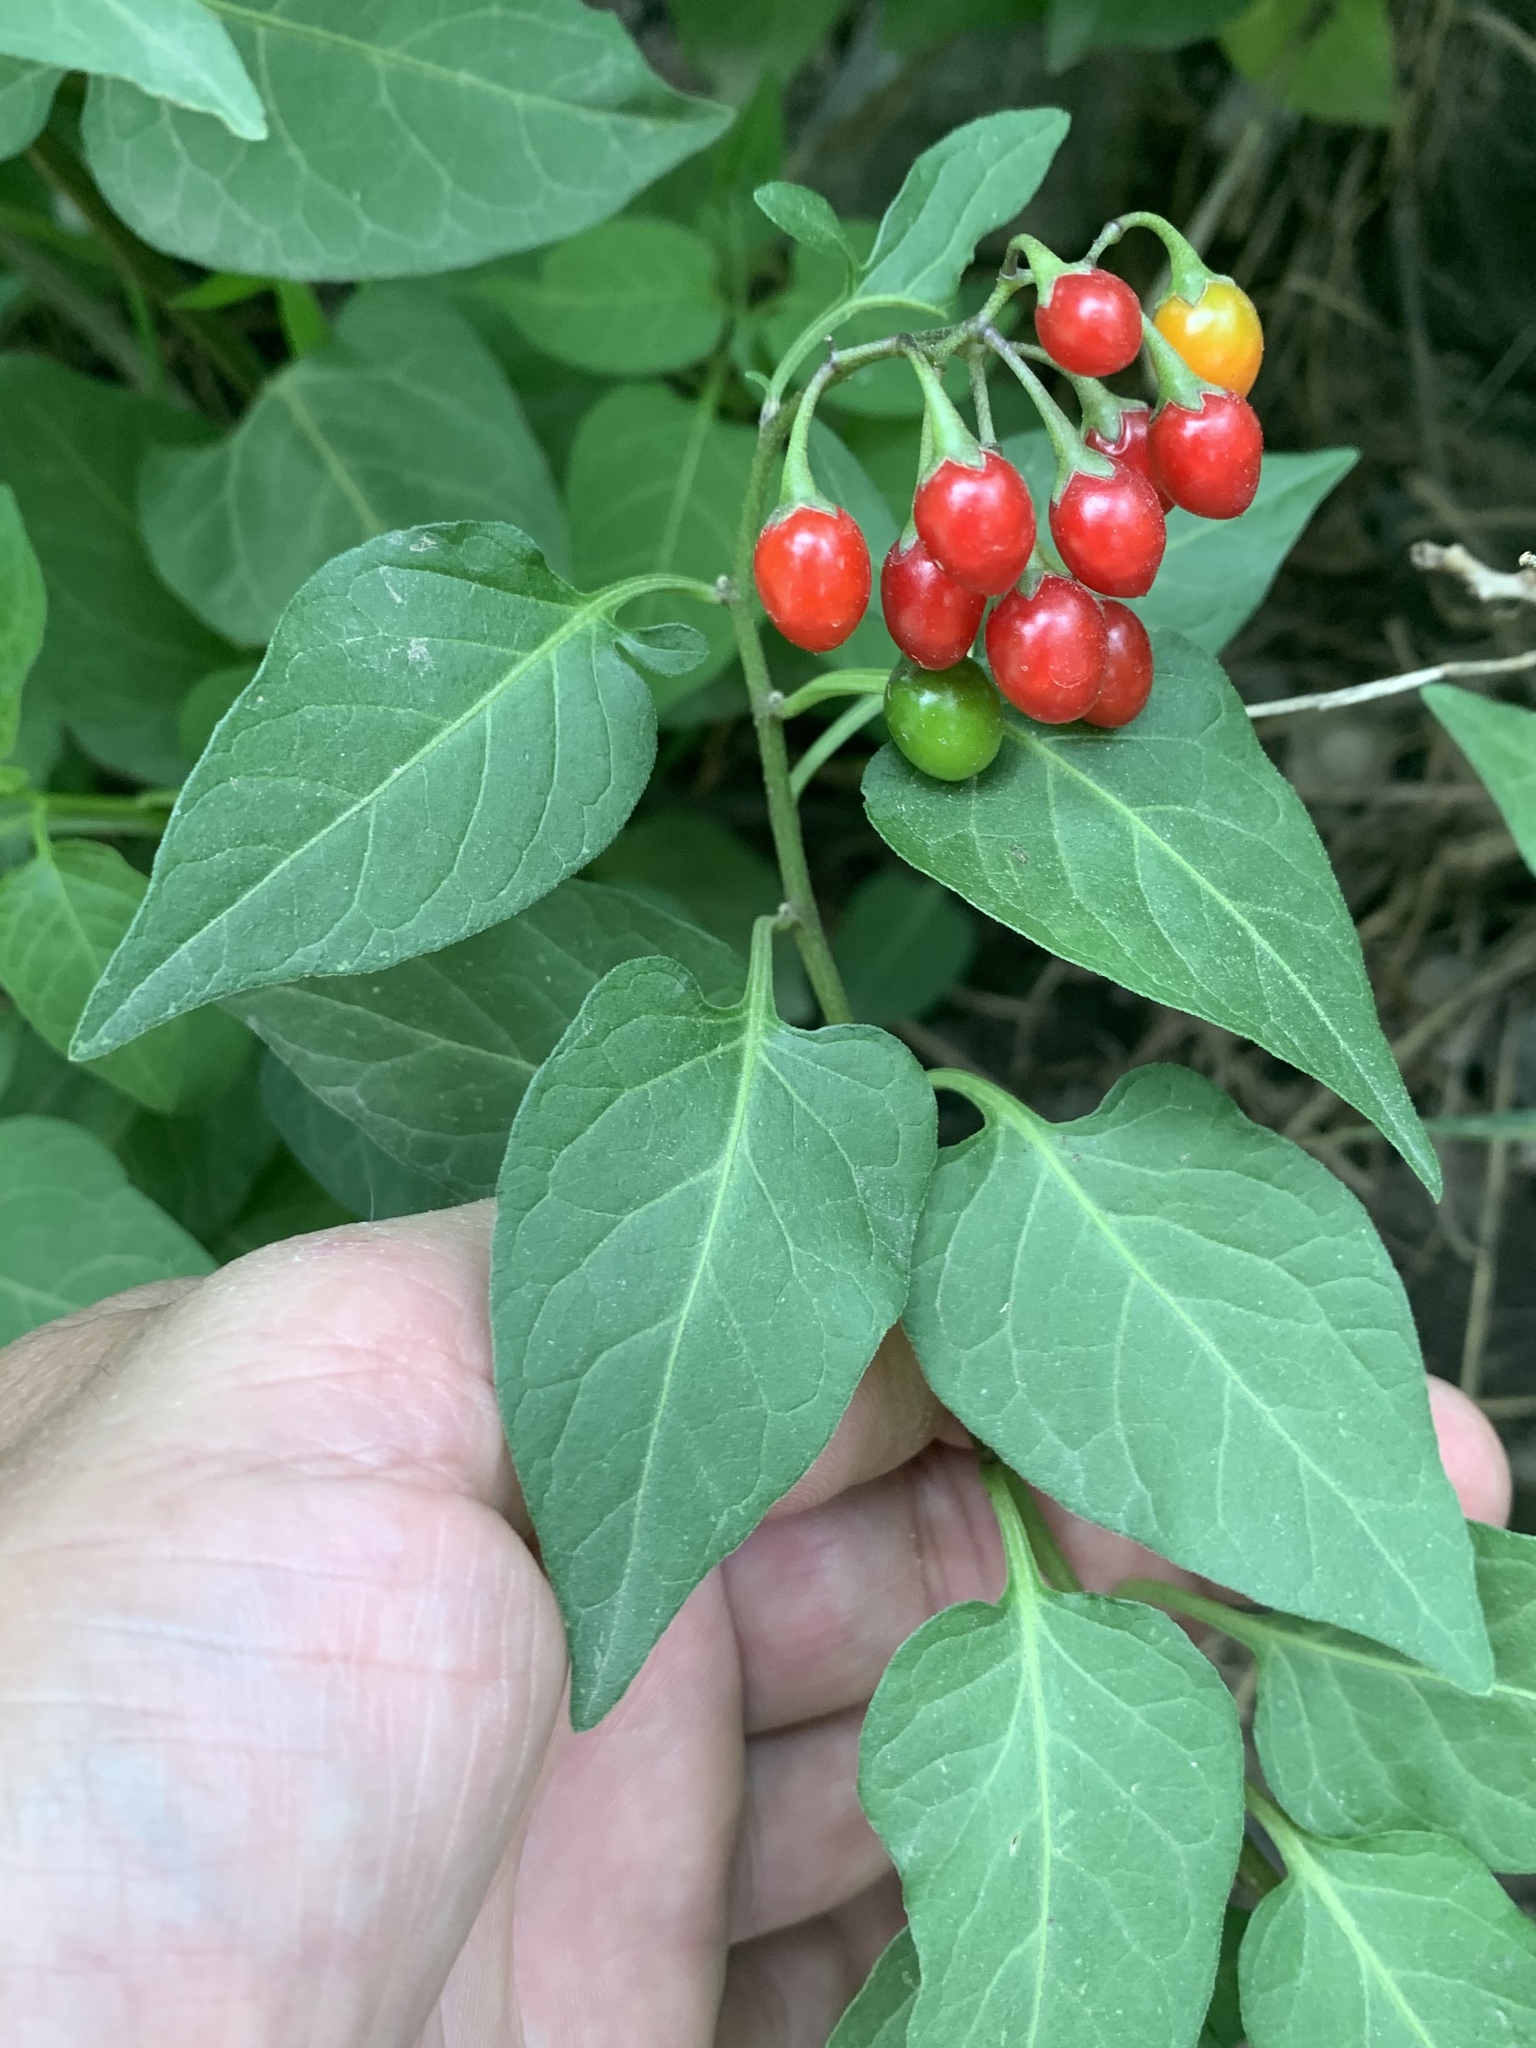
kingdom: Plantae
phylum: Tracheophyta
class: Magnoliopsida
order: Solanales
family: Solanaceae
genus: Solanum
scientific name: Solanum dulcamara
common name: Climbing nightshade
